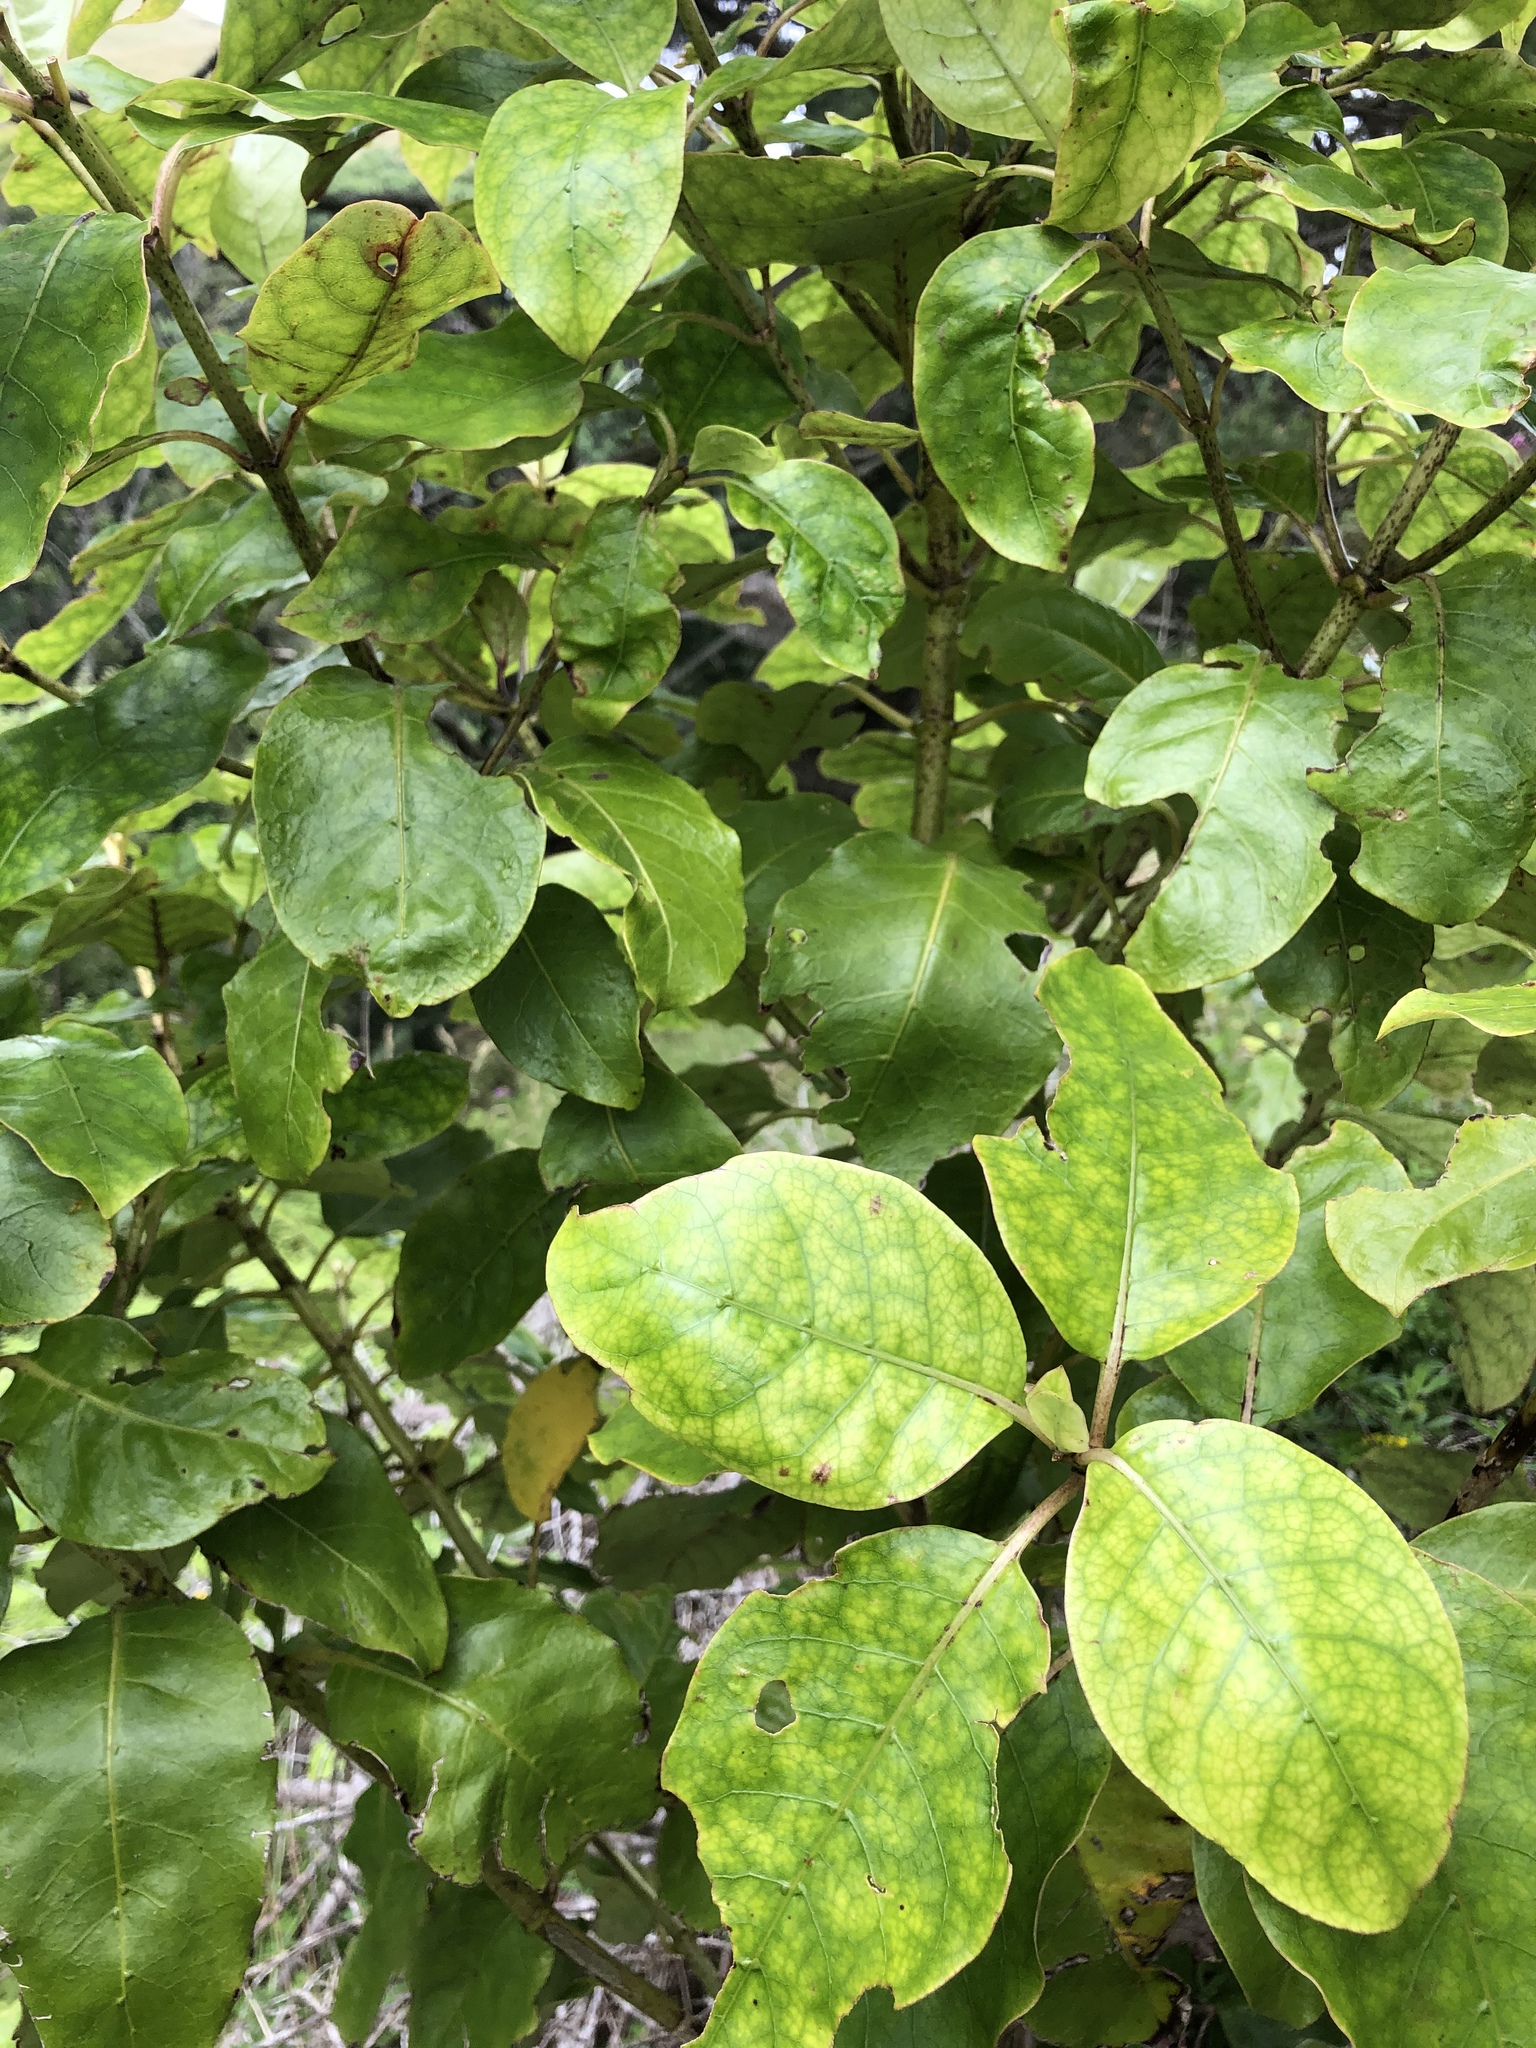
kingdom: Plantae
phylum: Tracheophyta
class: Magnoliopsida
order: Gentianales
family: Rubiaceae
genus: Coprosma
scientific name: Coprosma autumnalis
